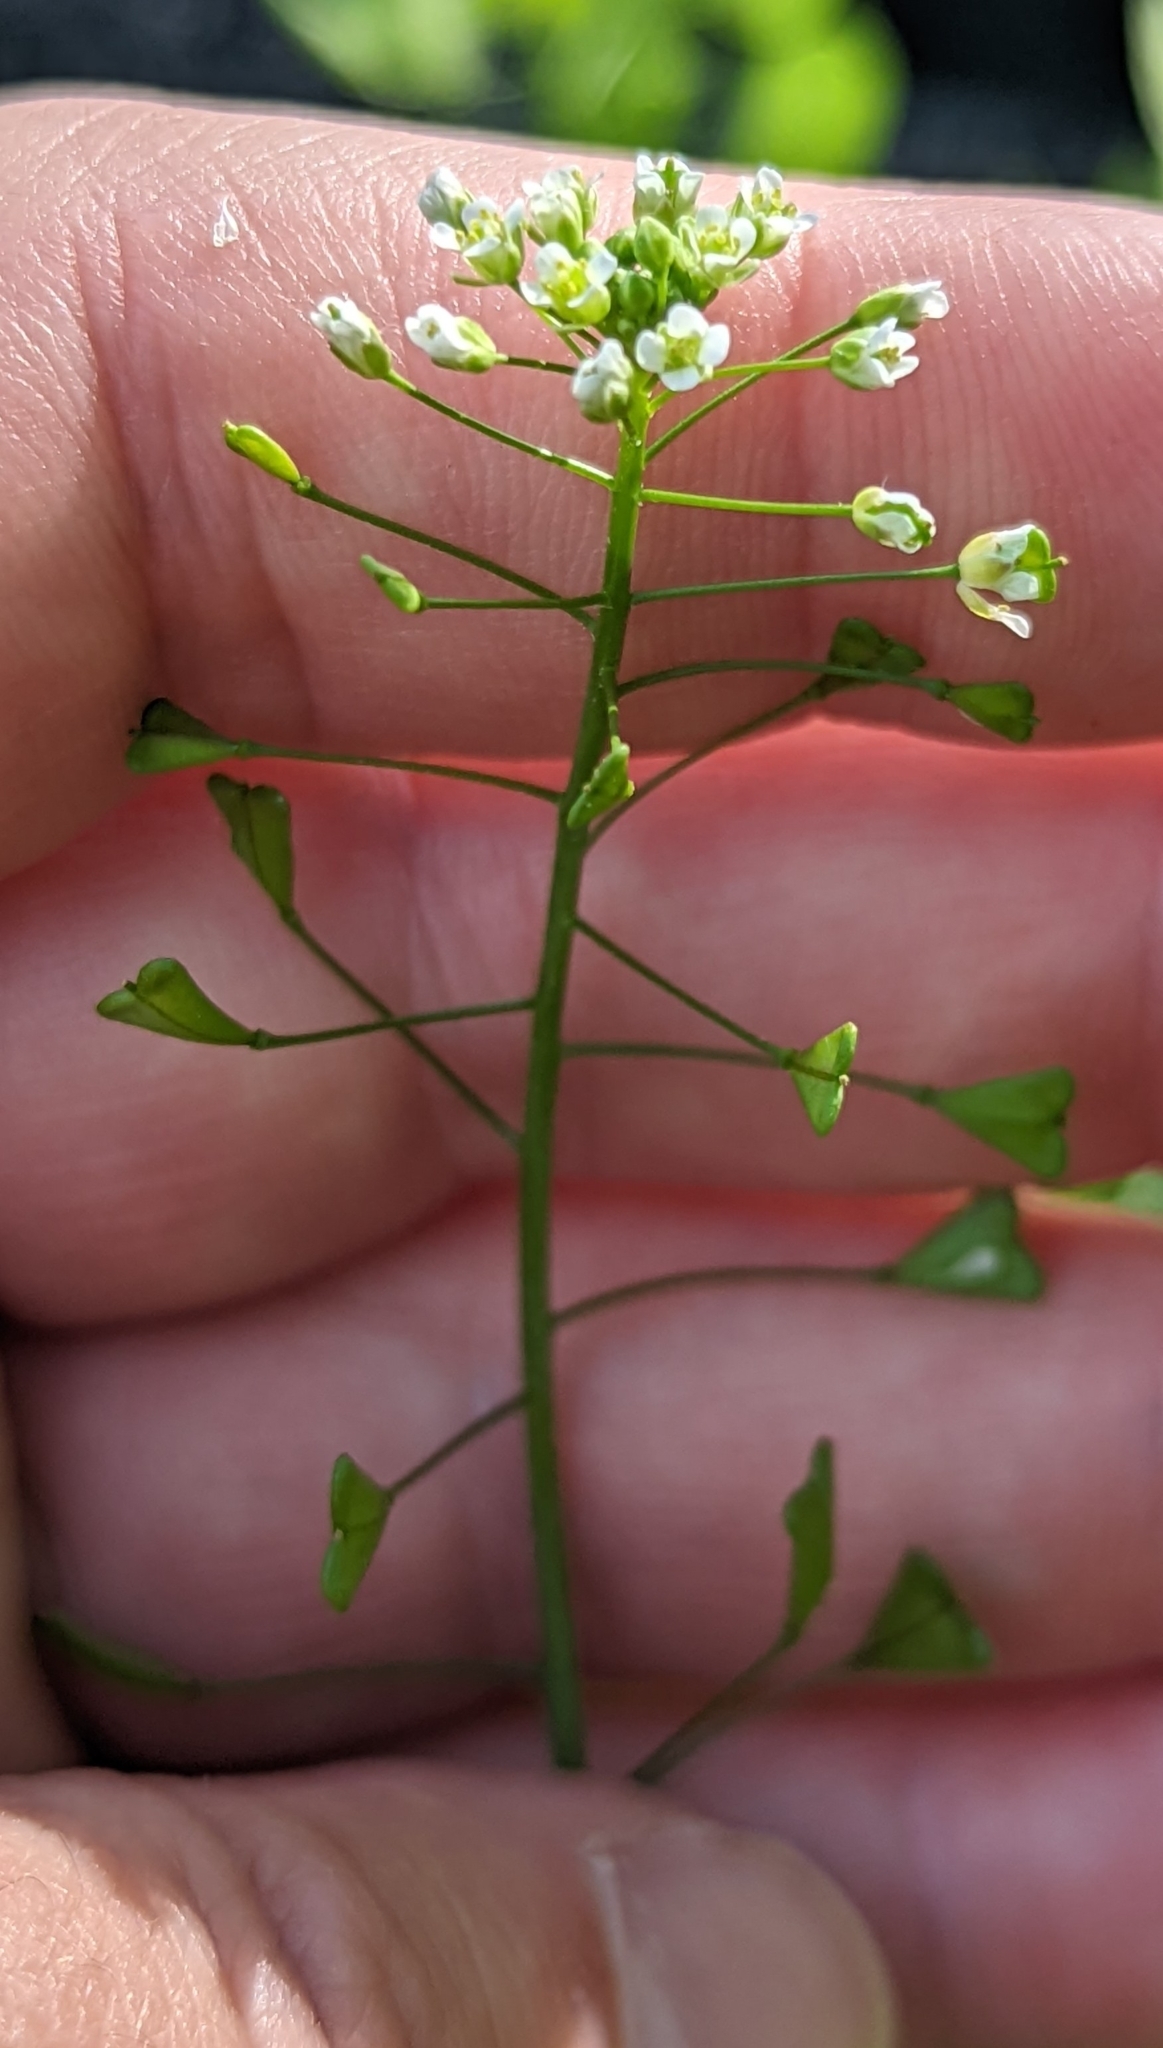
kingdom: Plantae
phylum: Tracheophyta
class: Magnoliopsida
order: Brassicales
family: Brassicaceae
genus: Capsella
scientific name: Capsella bursa-pastoris
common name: Shepherd's purse
